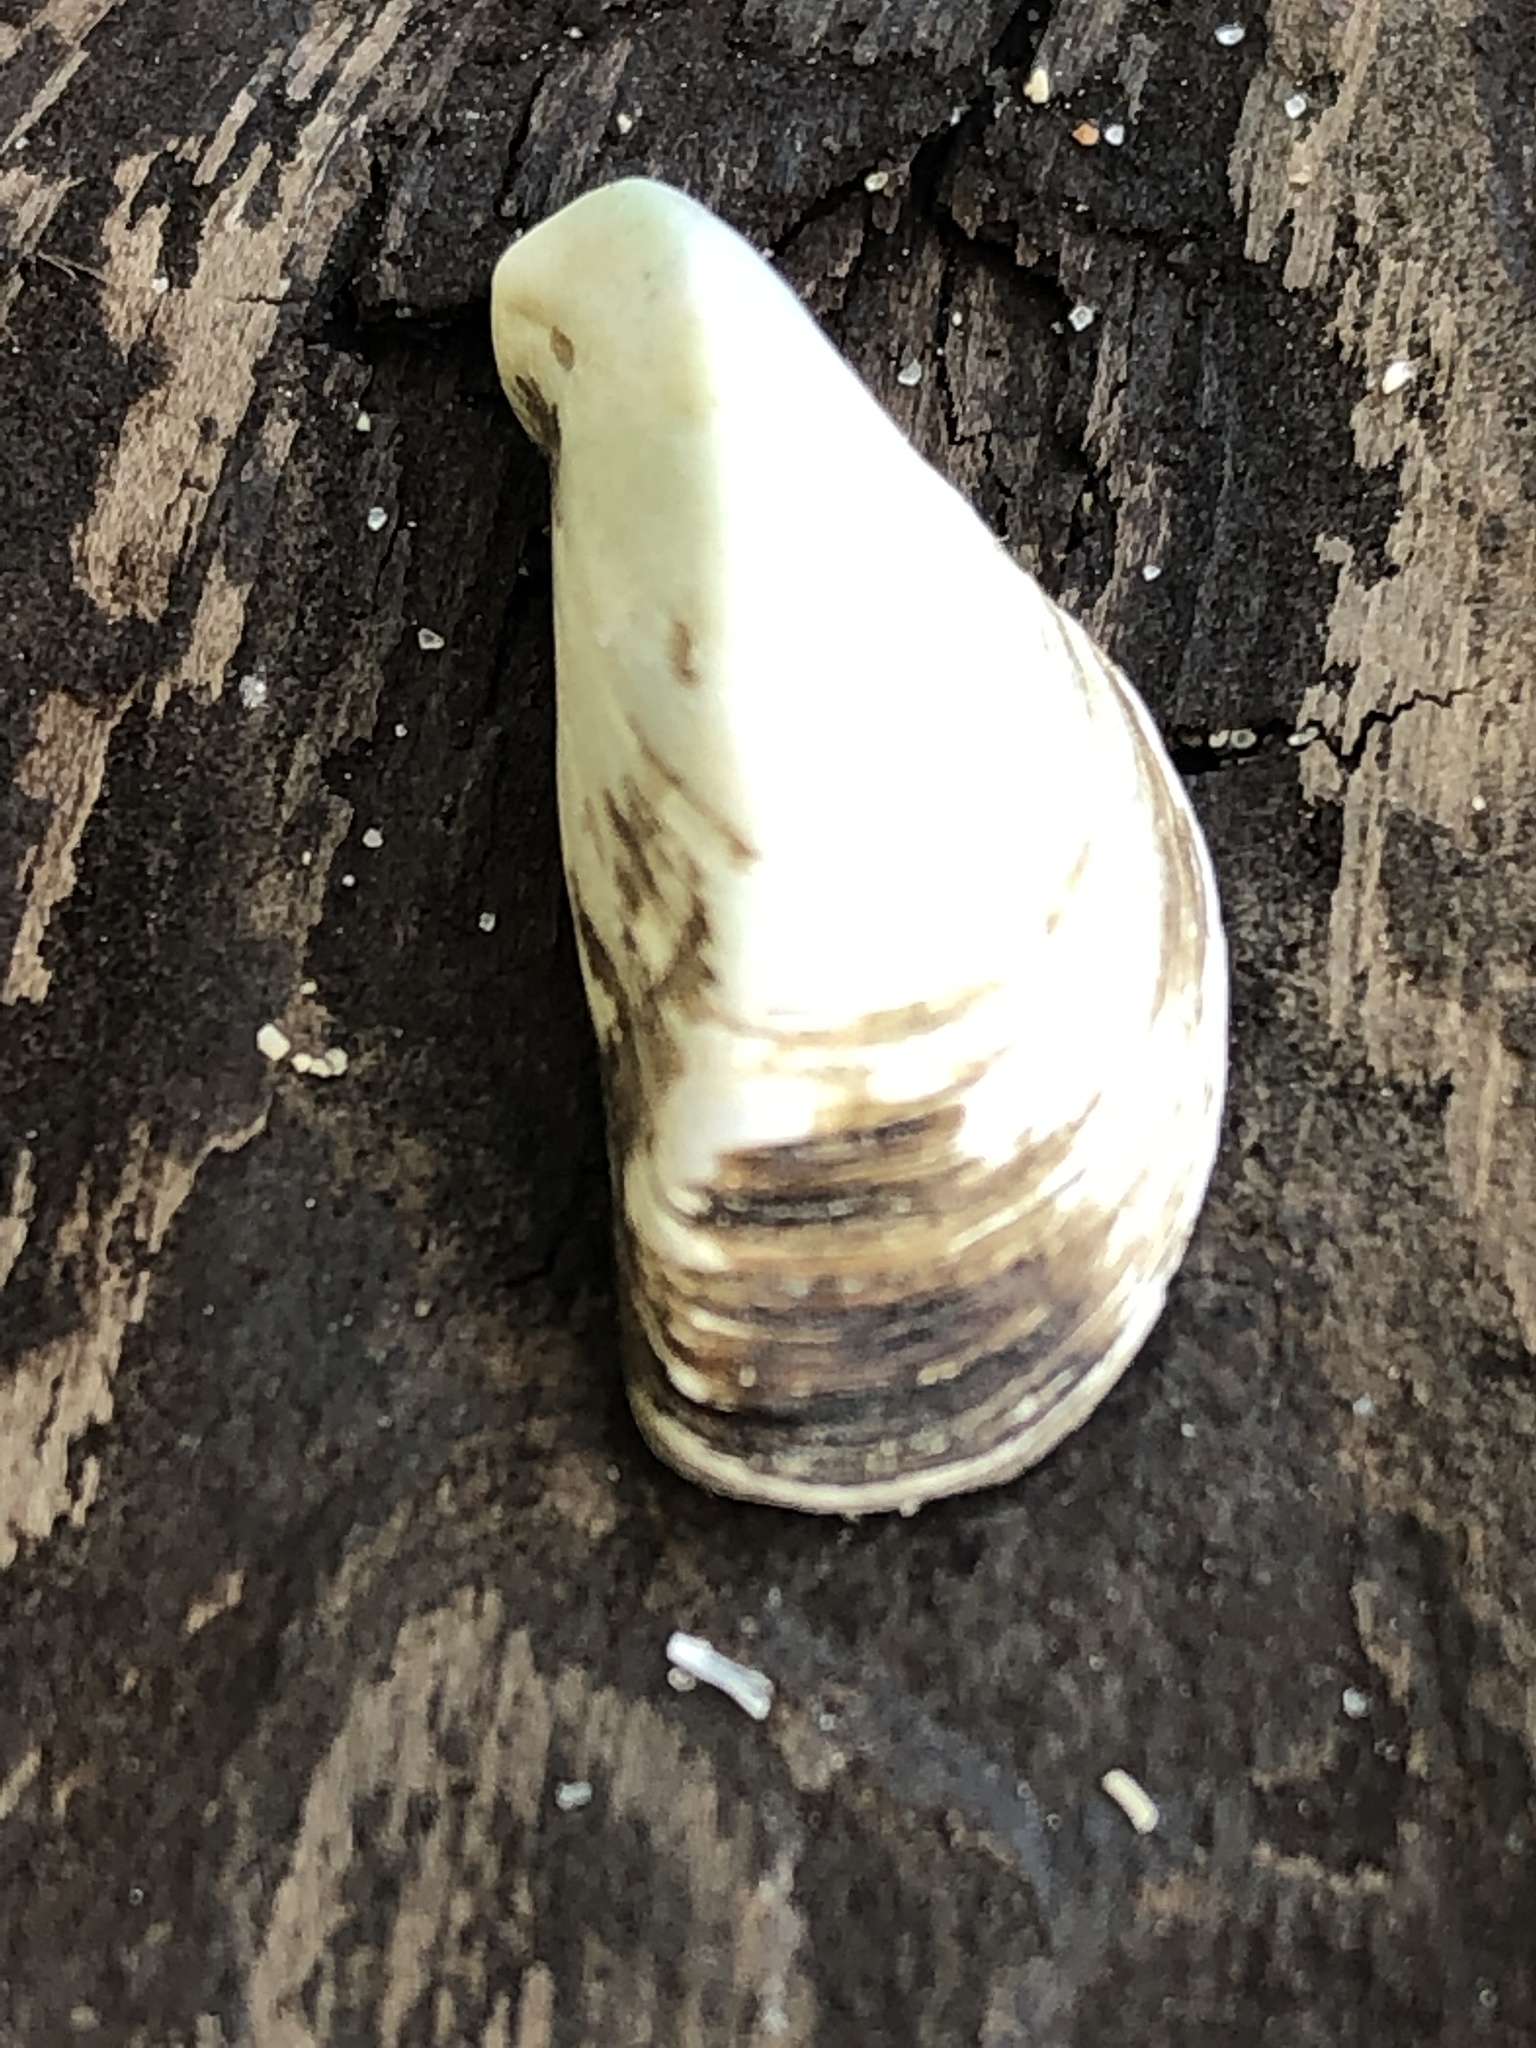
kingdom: Animalia
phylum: Mollusca
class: Bivalvia
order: Myida
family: Dreissenidae
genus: Dreissena
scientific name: Dreissena polymorpha
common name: Zebra mussel
